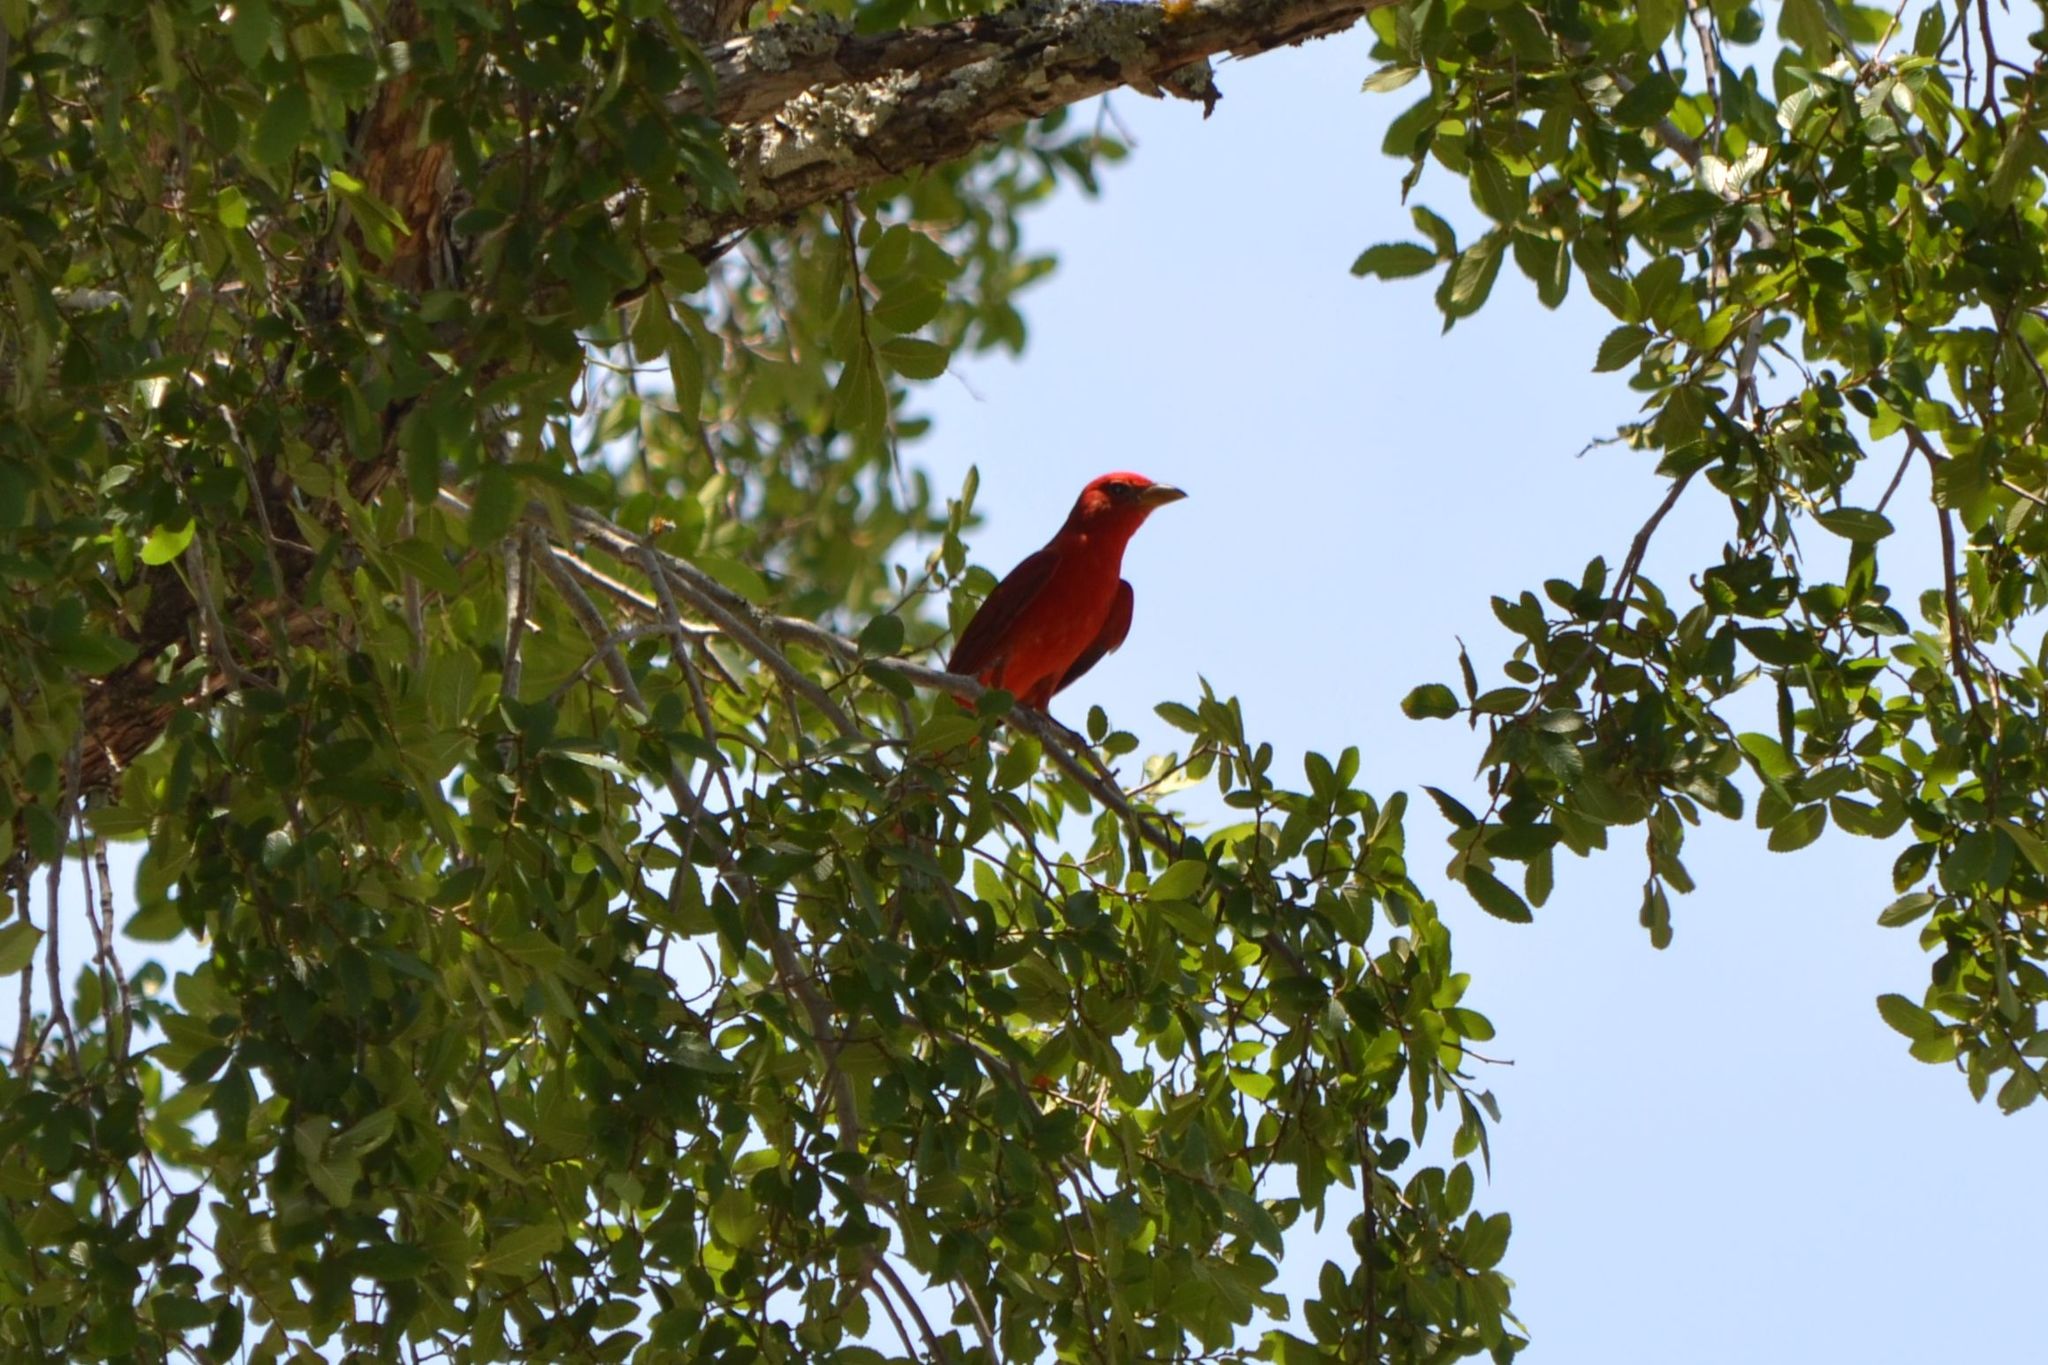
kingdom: Animalia
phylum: Chordata
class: Aves
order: Passeriformes
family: Cardinalidae
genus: Piranga
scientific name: Piranga rubra
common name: Summer tanager
